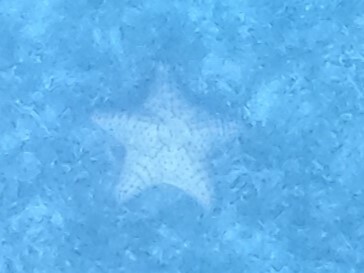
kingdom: Animalia
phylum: Echinodermata
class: Asteroidea
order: Valvatida
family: Oreasteridae
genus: Oreaster
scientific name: Oreaster reticulatus
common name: Cushion sea star
